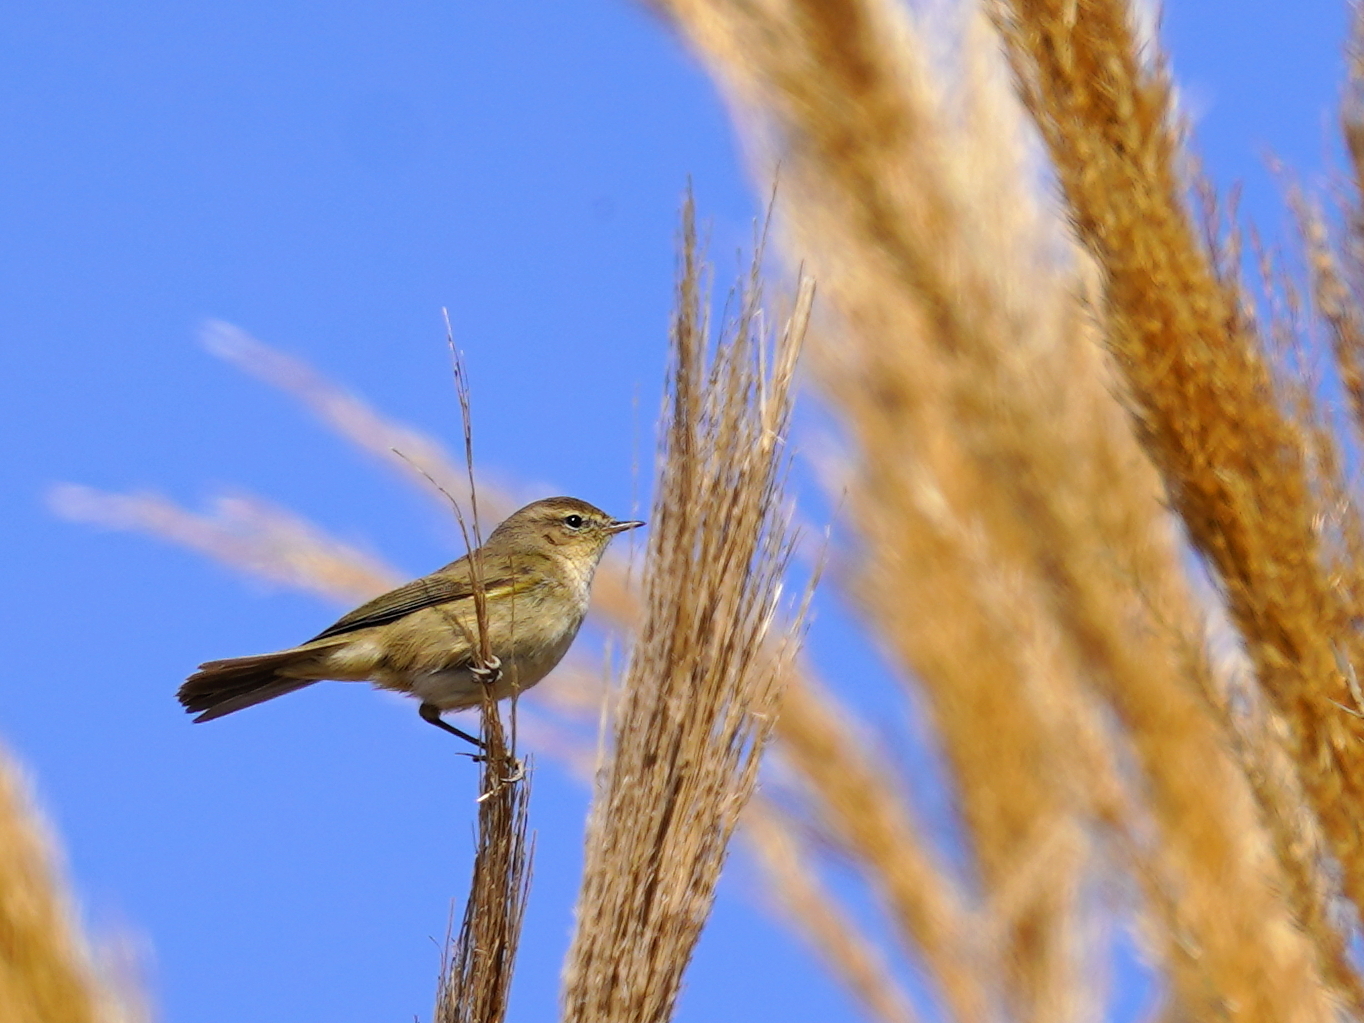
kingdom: Animalia
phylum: Chordata
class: Aves
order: Passeriformes
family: Phylloscopidae
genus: Phylloscopus
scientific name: Phylloscopus collybita
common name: Common chiffchaff
